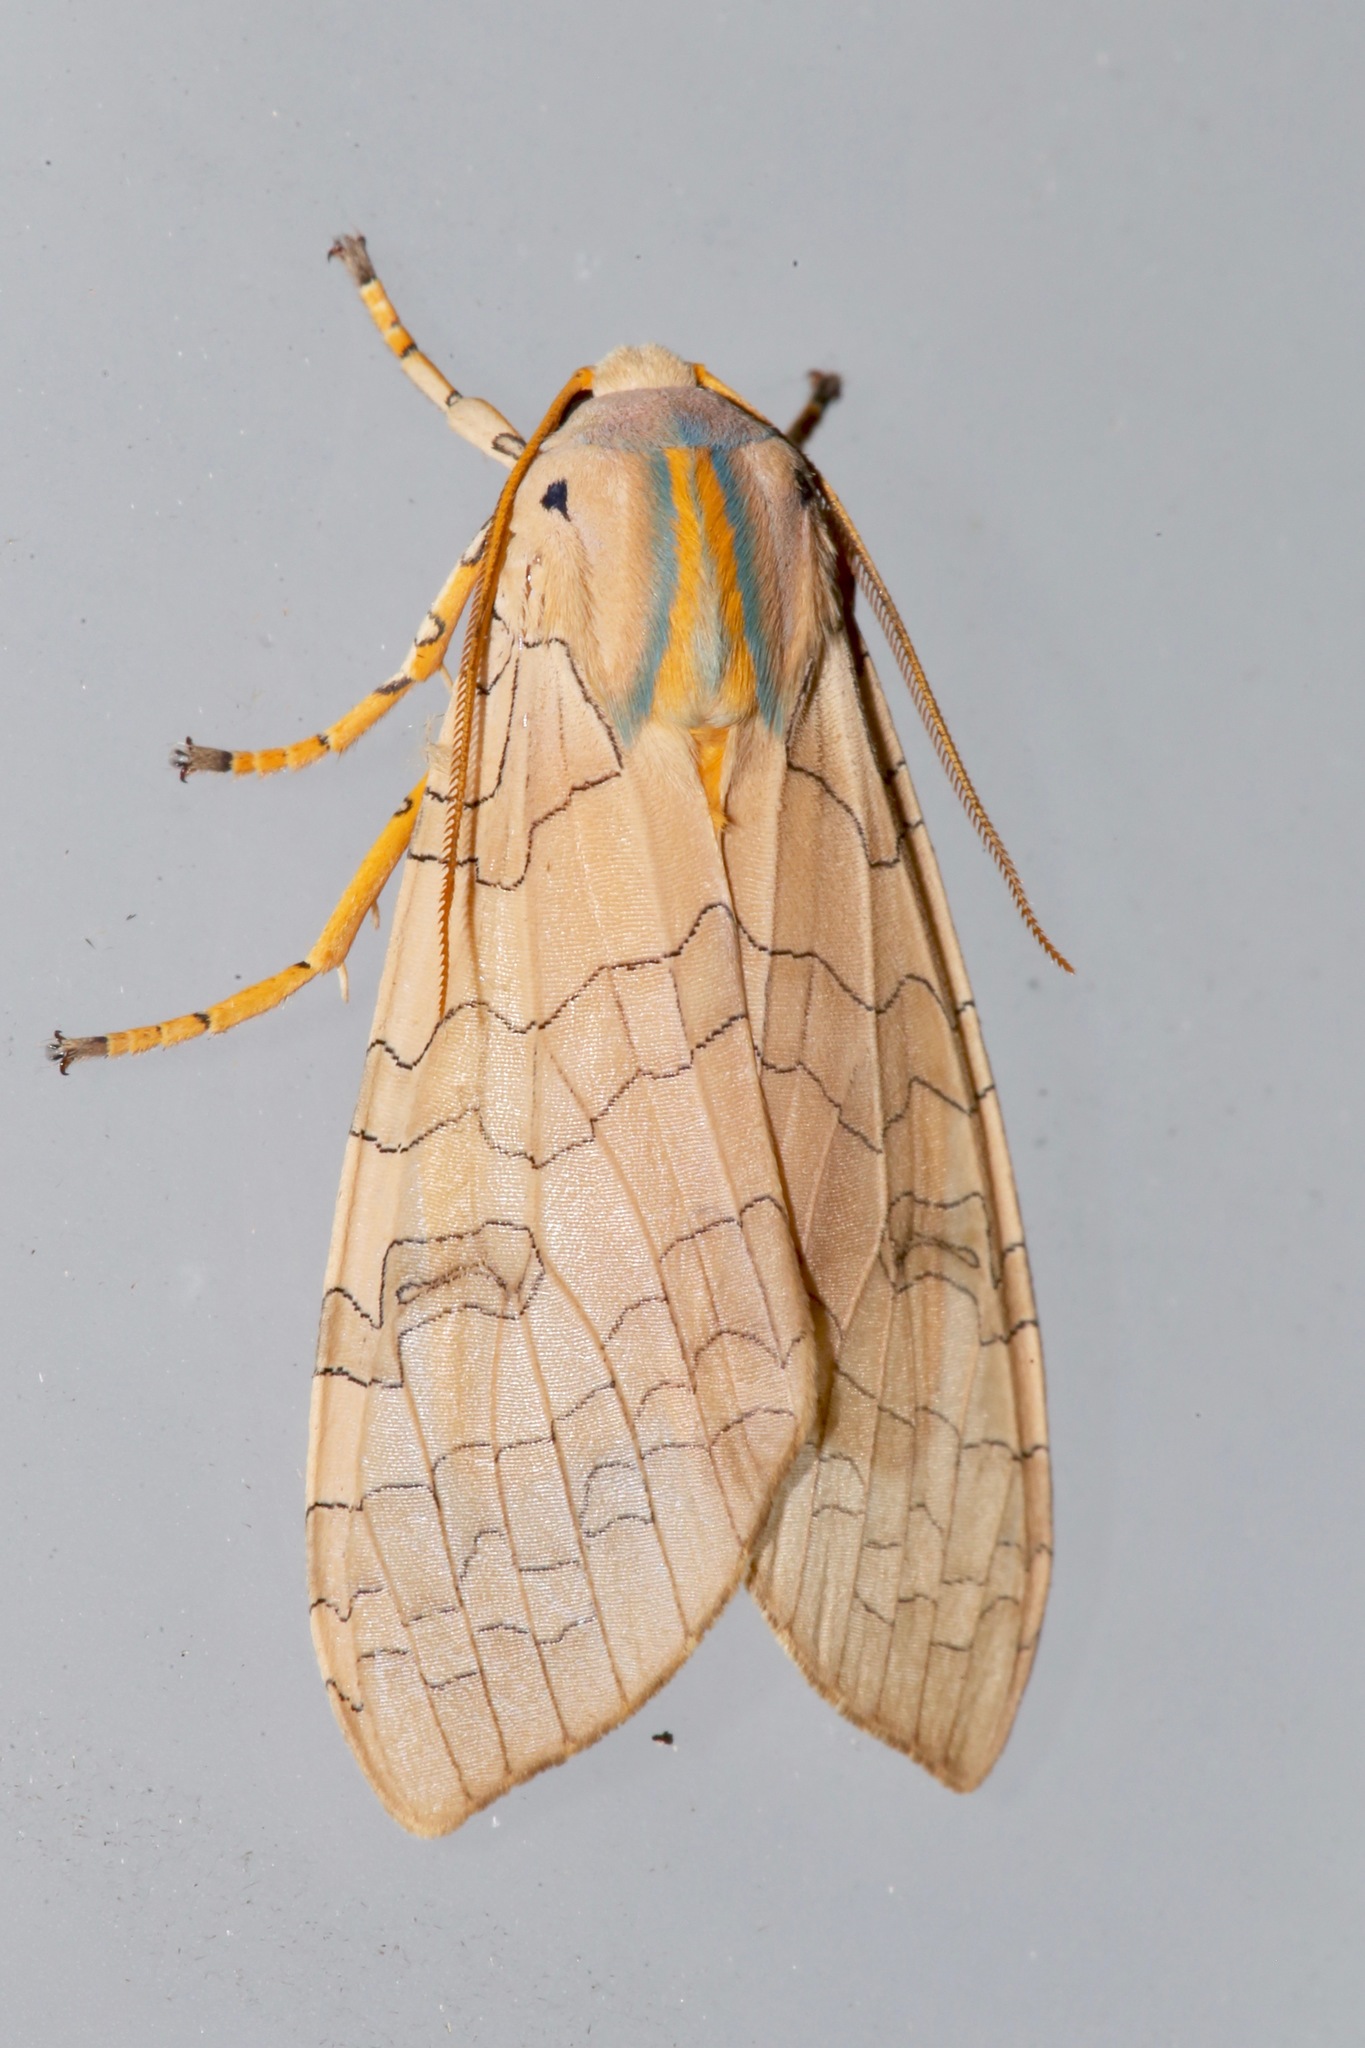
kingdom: Animalia
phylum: Arthropoda
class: Insecta
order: Lepidoptera
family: Erebidae
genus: Halysidota
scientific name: Halysidota tessellaris
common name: Banded tussock moth
